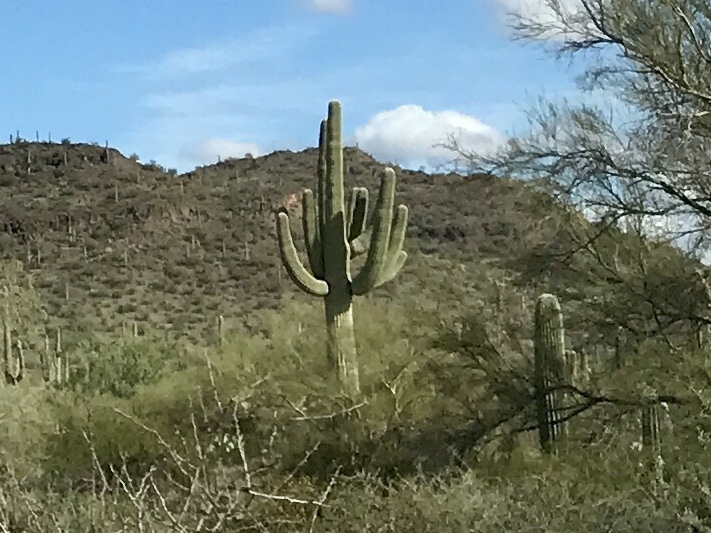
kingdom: Plantae
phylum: Tracheophyta
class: Magnoliopsida
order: Caryophyllales
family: Cactaceae
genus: Carnegiea
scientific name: Carnegiea gigantea
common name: Saguaro
